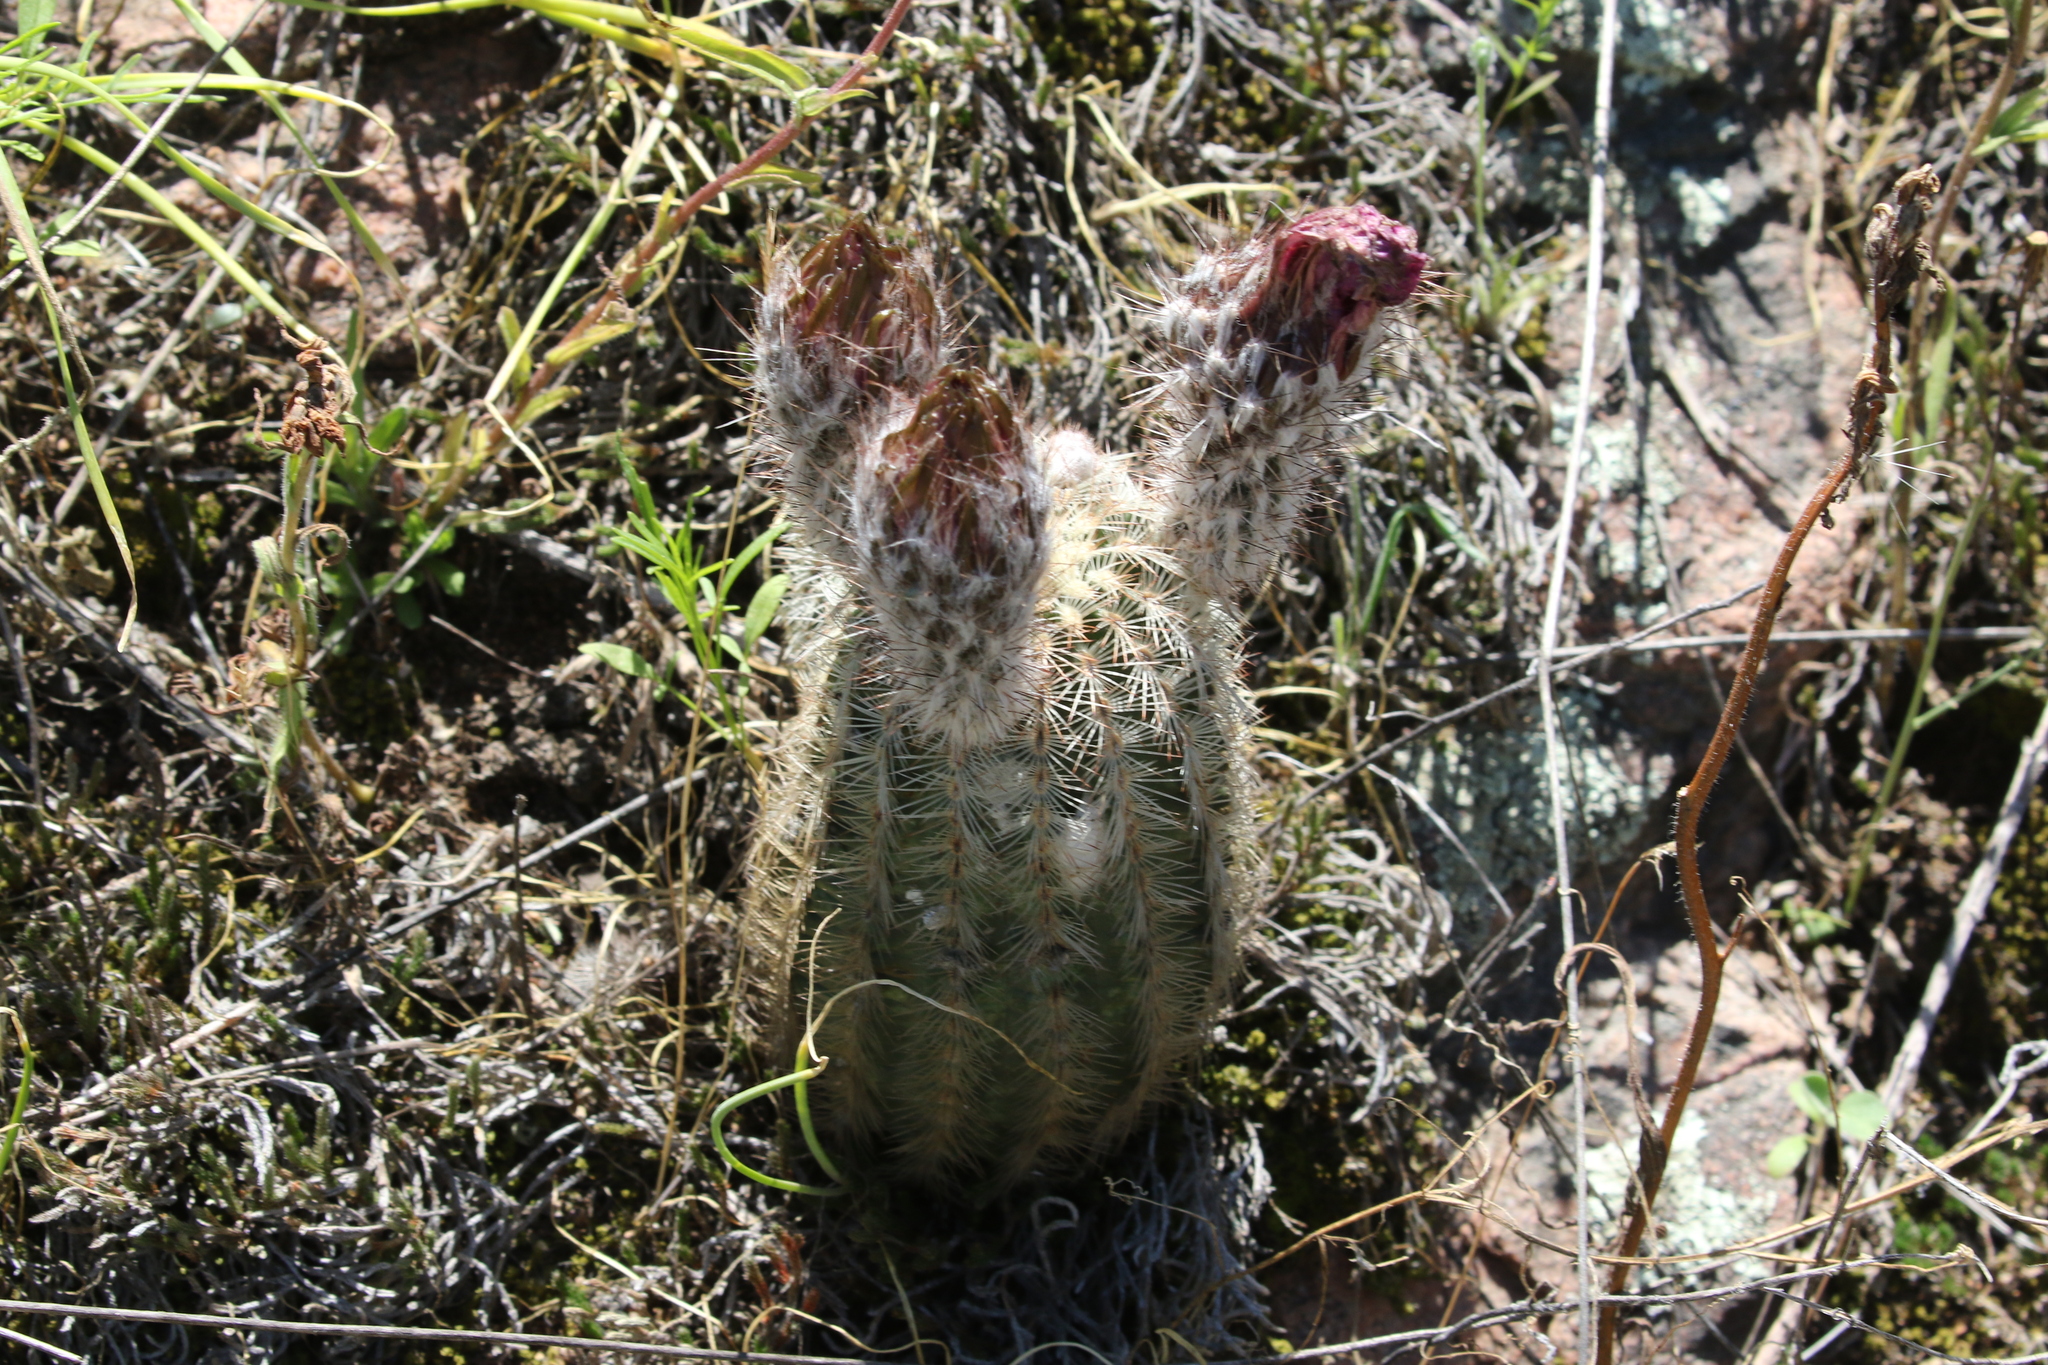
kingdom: Plantae
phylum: Tracheophyta
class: Magnoliopsida
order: Caryophyllales
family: Cactaceae
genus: Echinocereus
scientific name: Echinocereus reichenbachii
